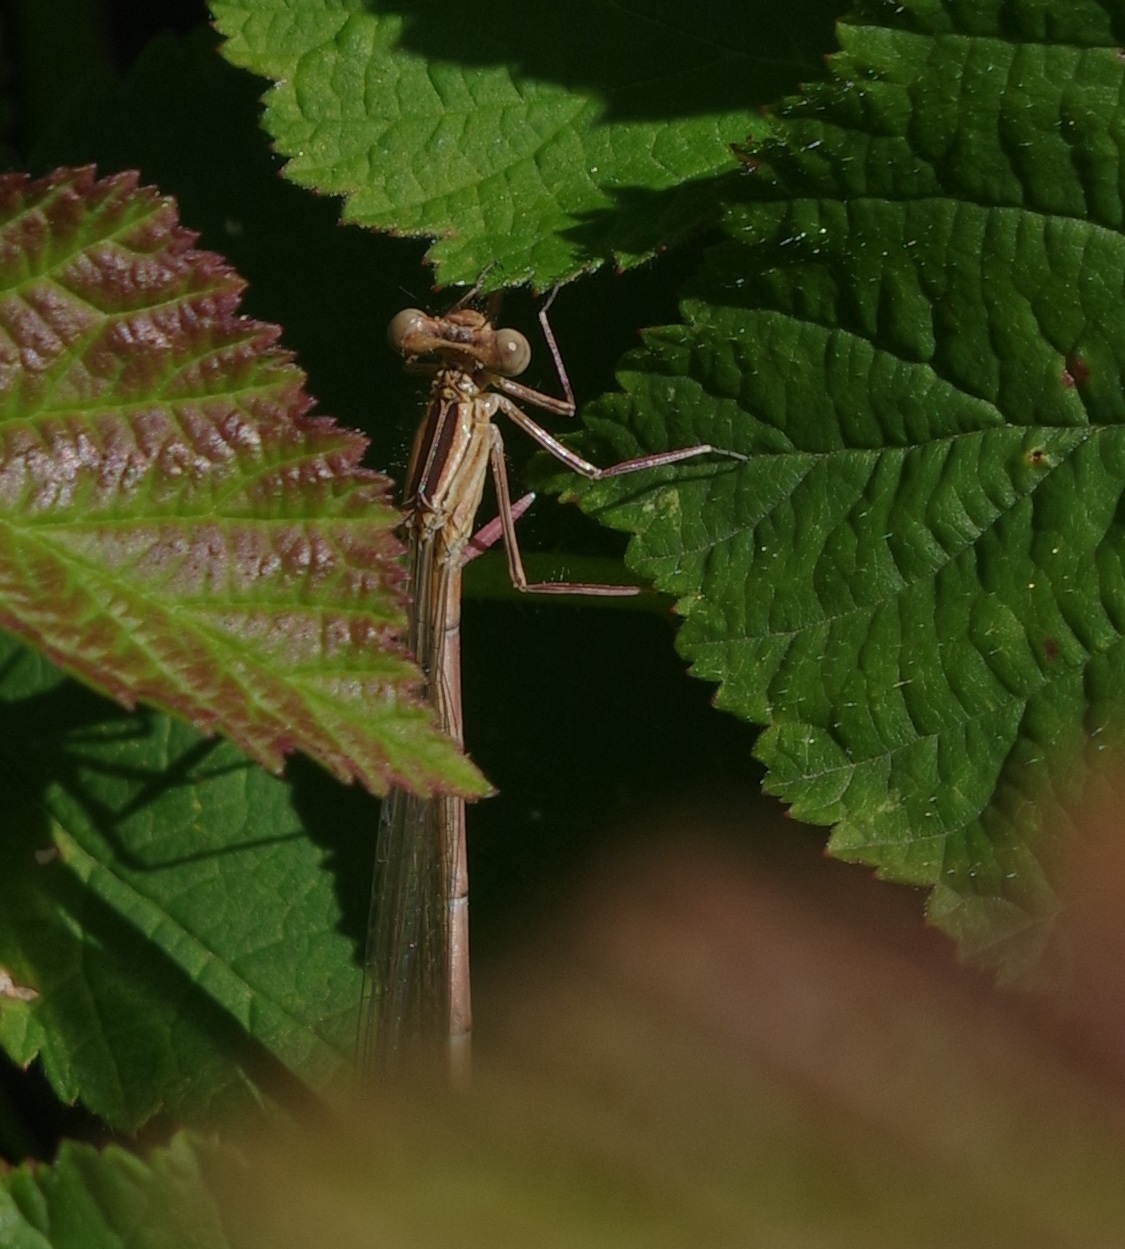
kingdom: Animalia
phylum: Arthropoda
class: Insecta
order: Odonata
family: Platycnemididae
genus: Platycnemis
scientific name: Platycnemis pennipes
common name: White-legged damselfly
